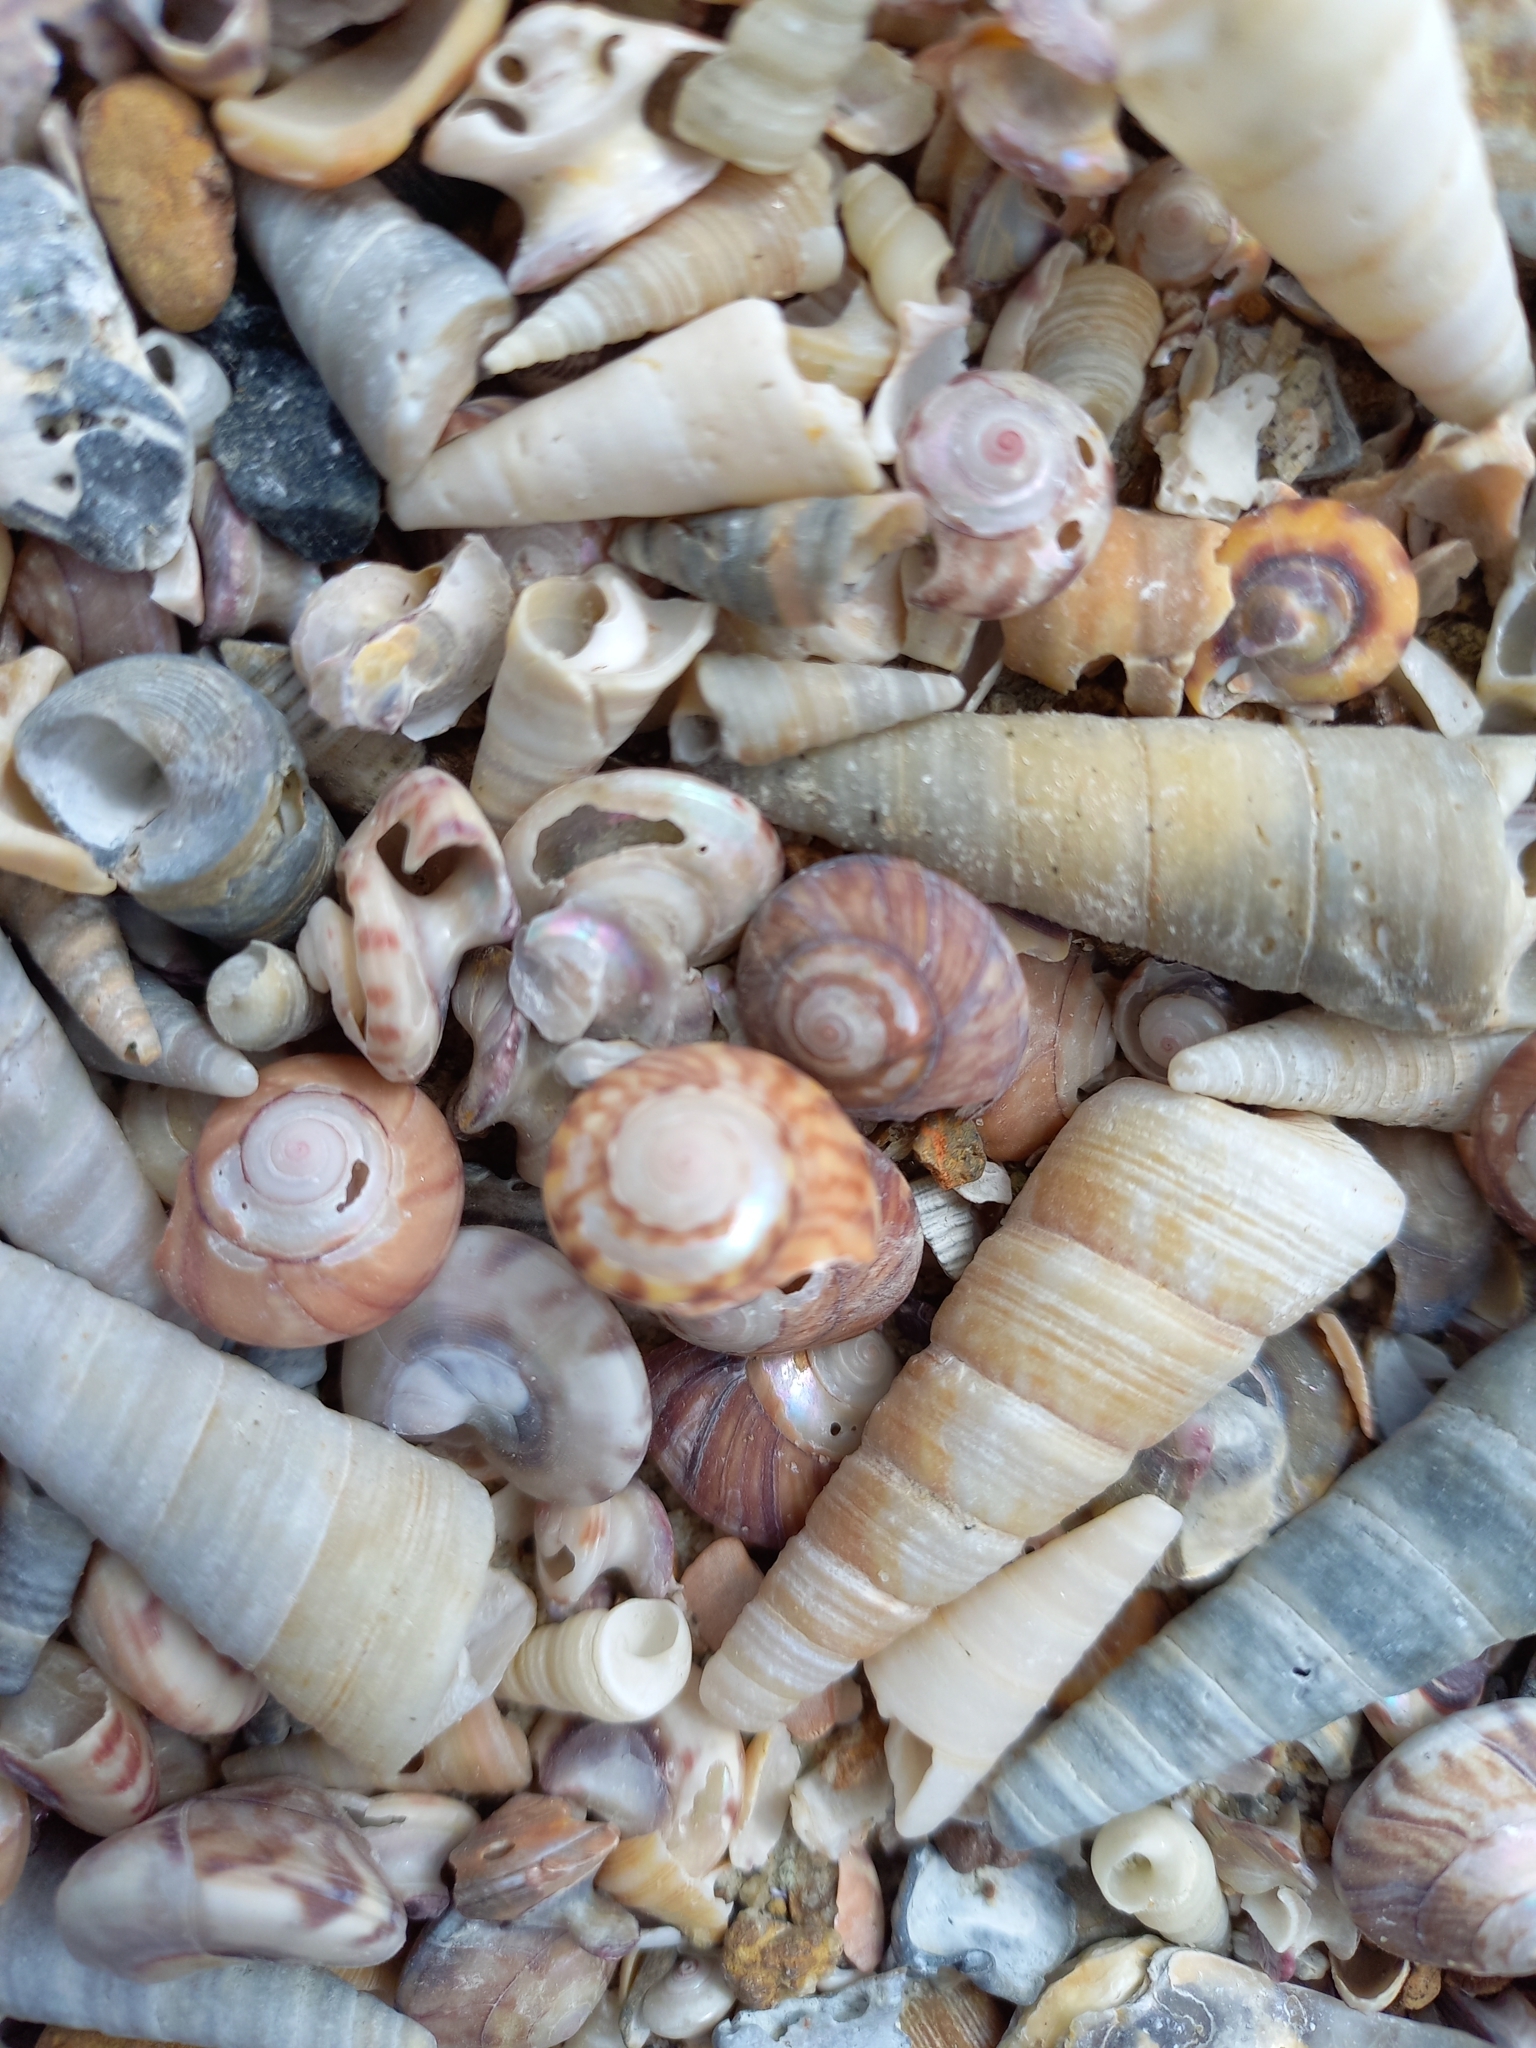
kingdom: Animalia
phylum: Mollusca
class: Gastropoda
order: Trochida
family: Trochidae
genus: Zethalia
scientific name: Zethalia zelandica
